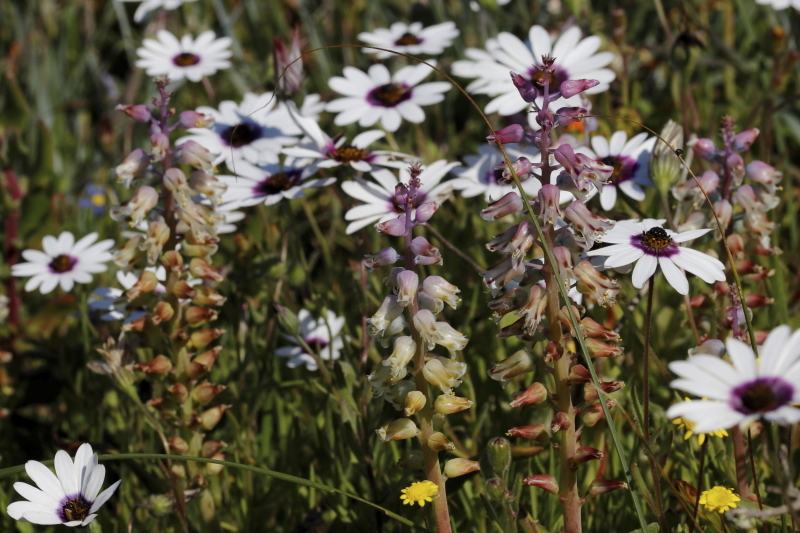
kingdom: Plantae
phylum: Tracheophyta
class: Liliopsida
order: Asparagales
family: Asparagaceae
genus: Lachenalia
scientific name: Lachenalia pallida
